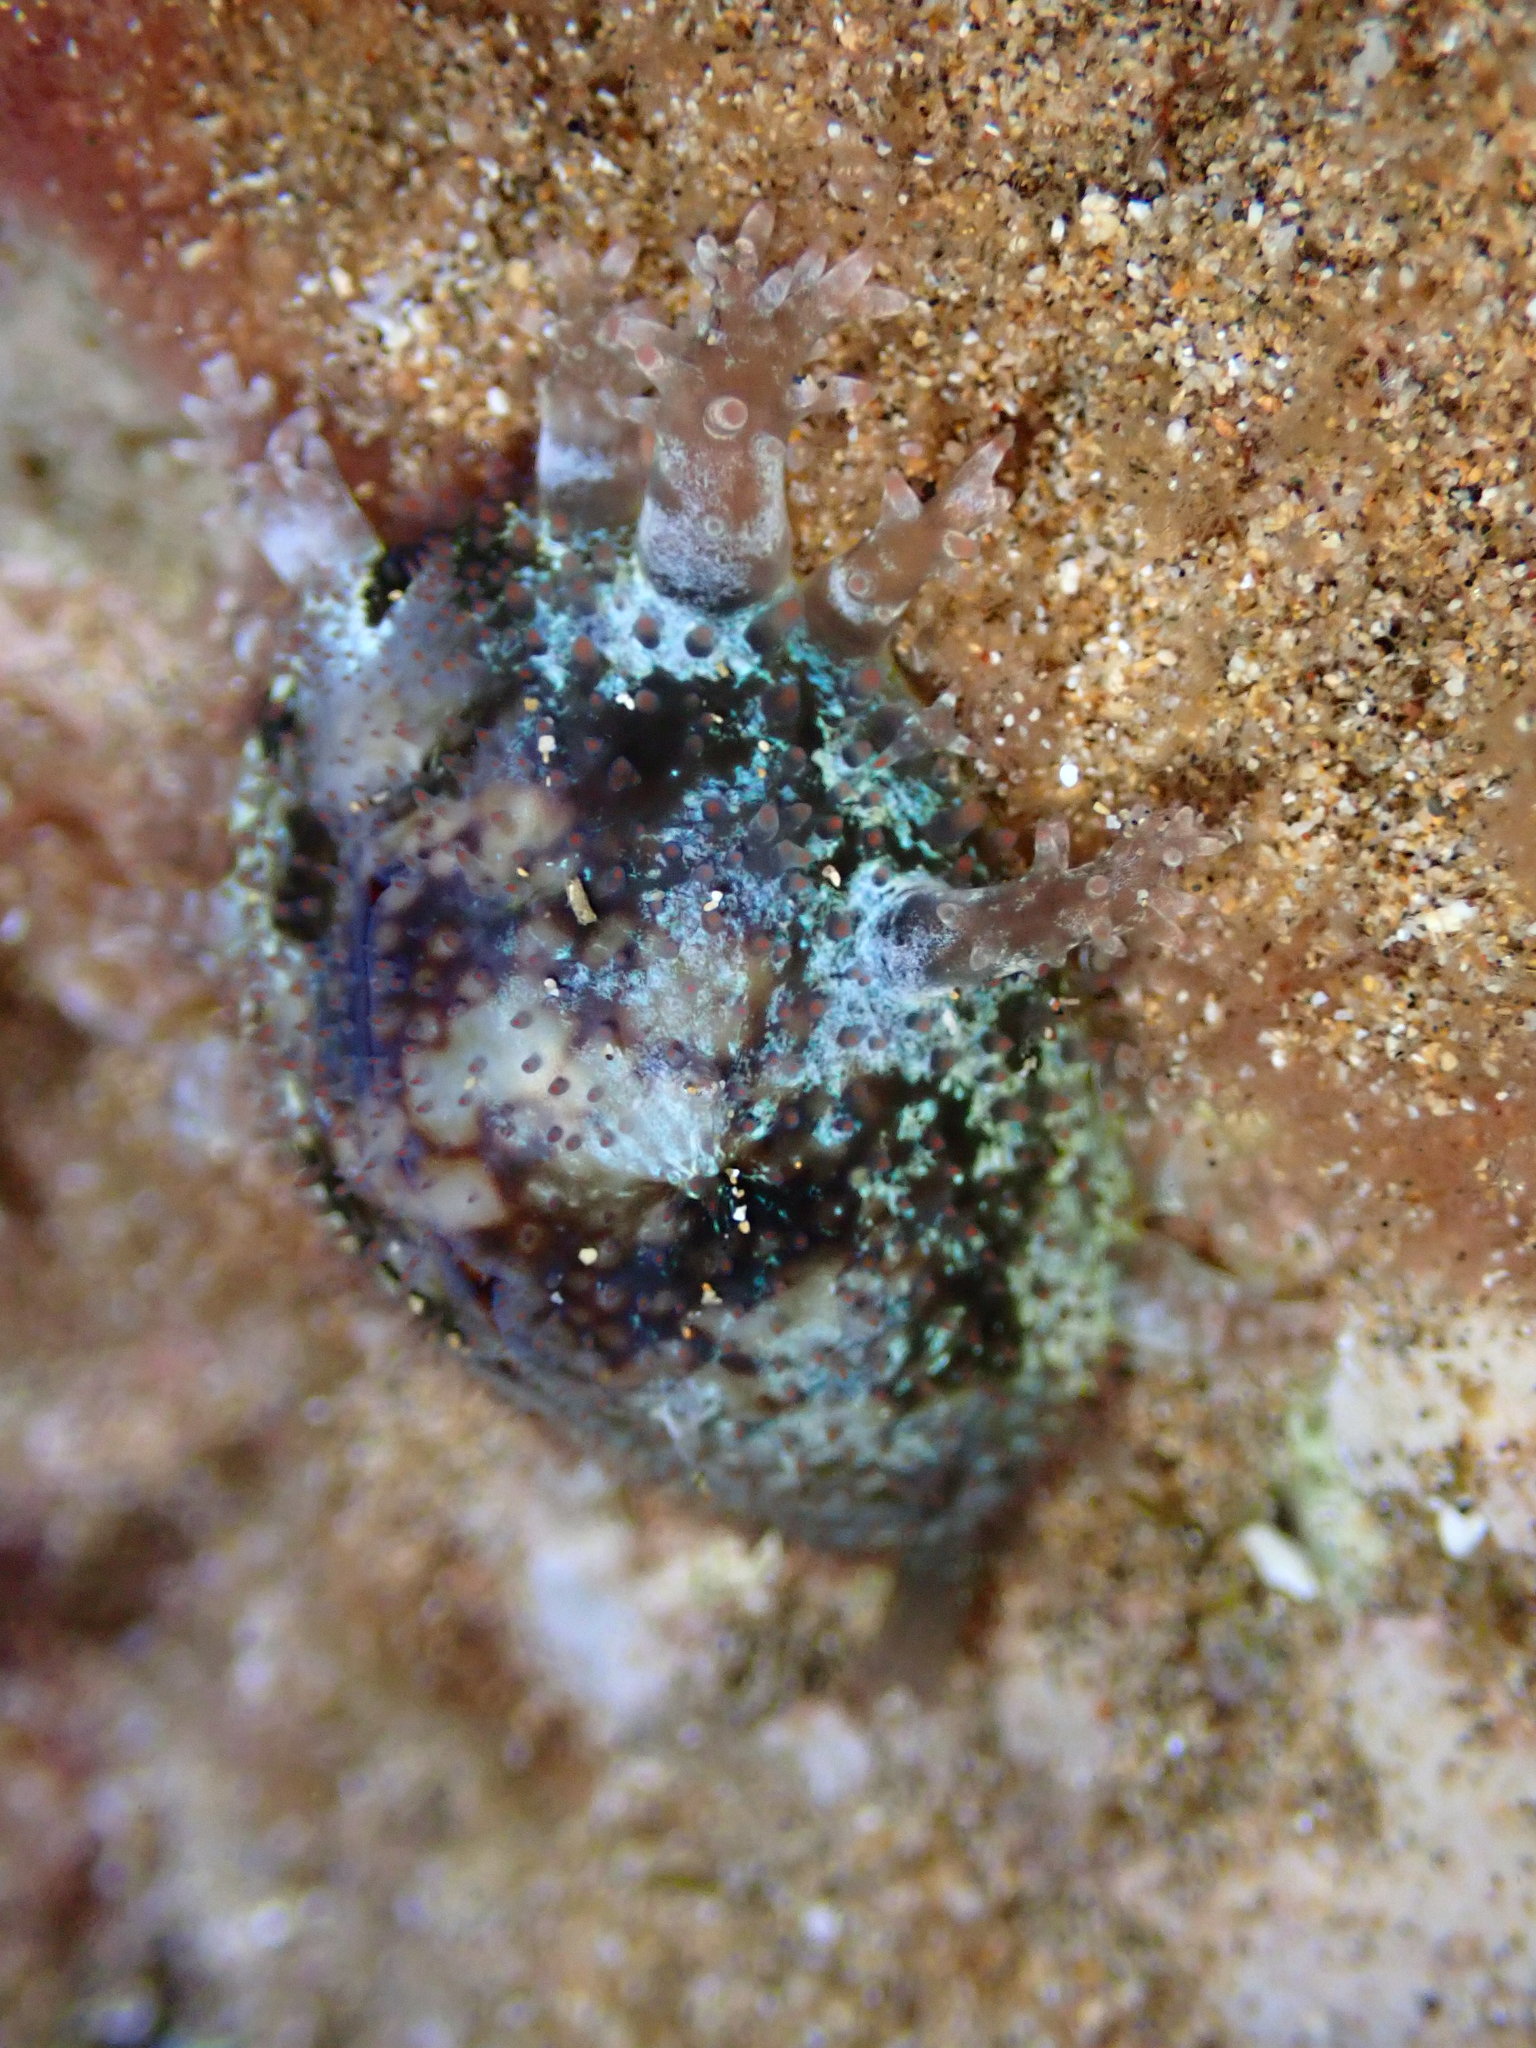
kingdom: Animalia
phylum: Mollusca
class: Gastropoda
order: Littorinimorpha
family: Cypraeidae
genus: Monetaria
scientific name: Monetaria caputophidii
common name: Snake's head cowry
